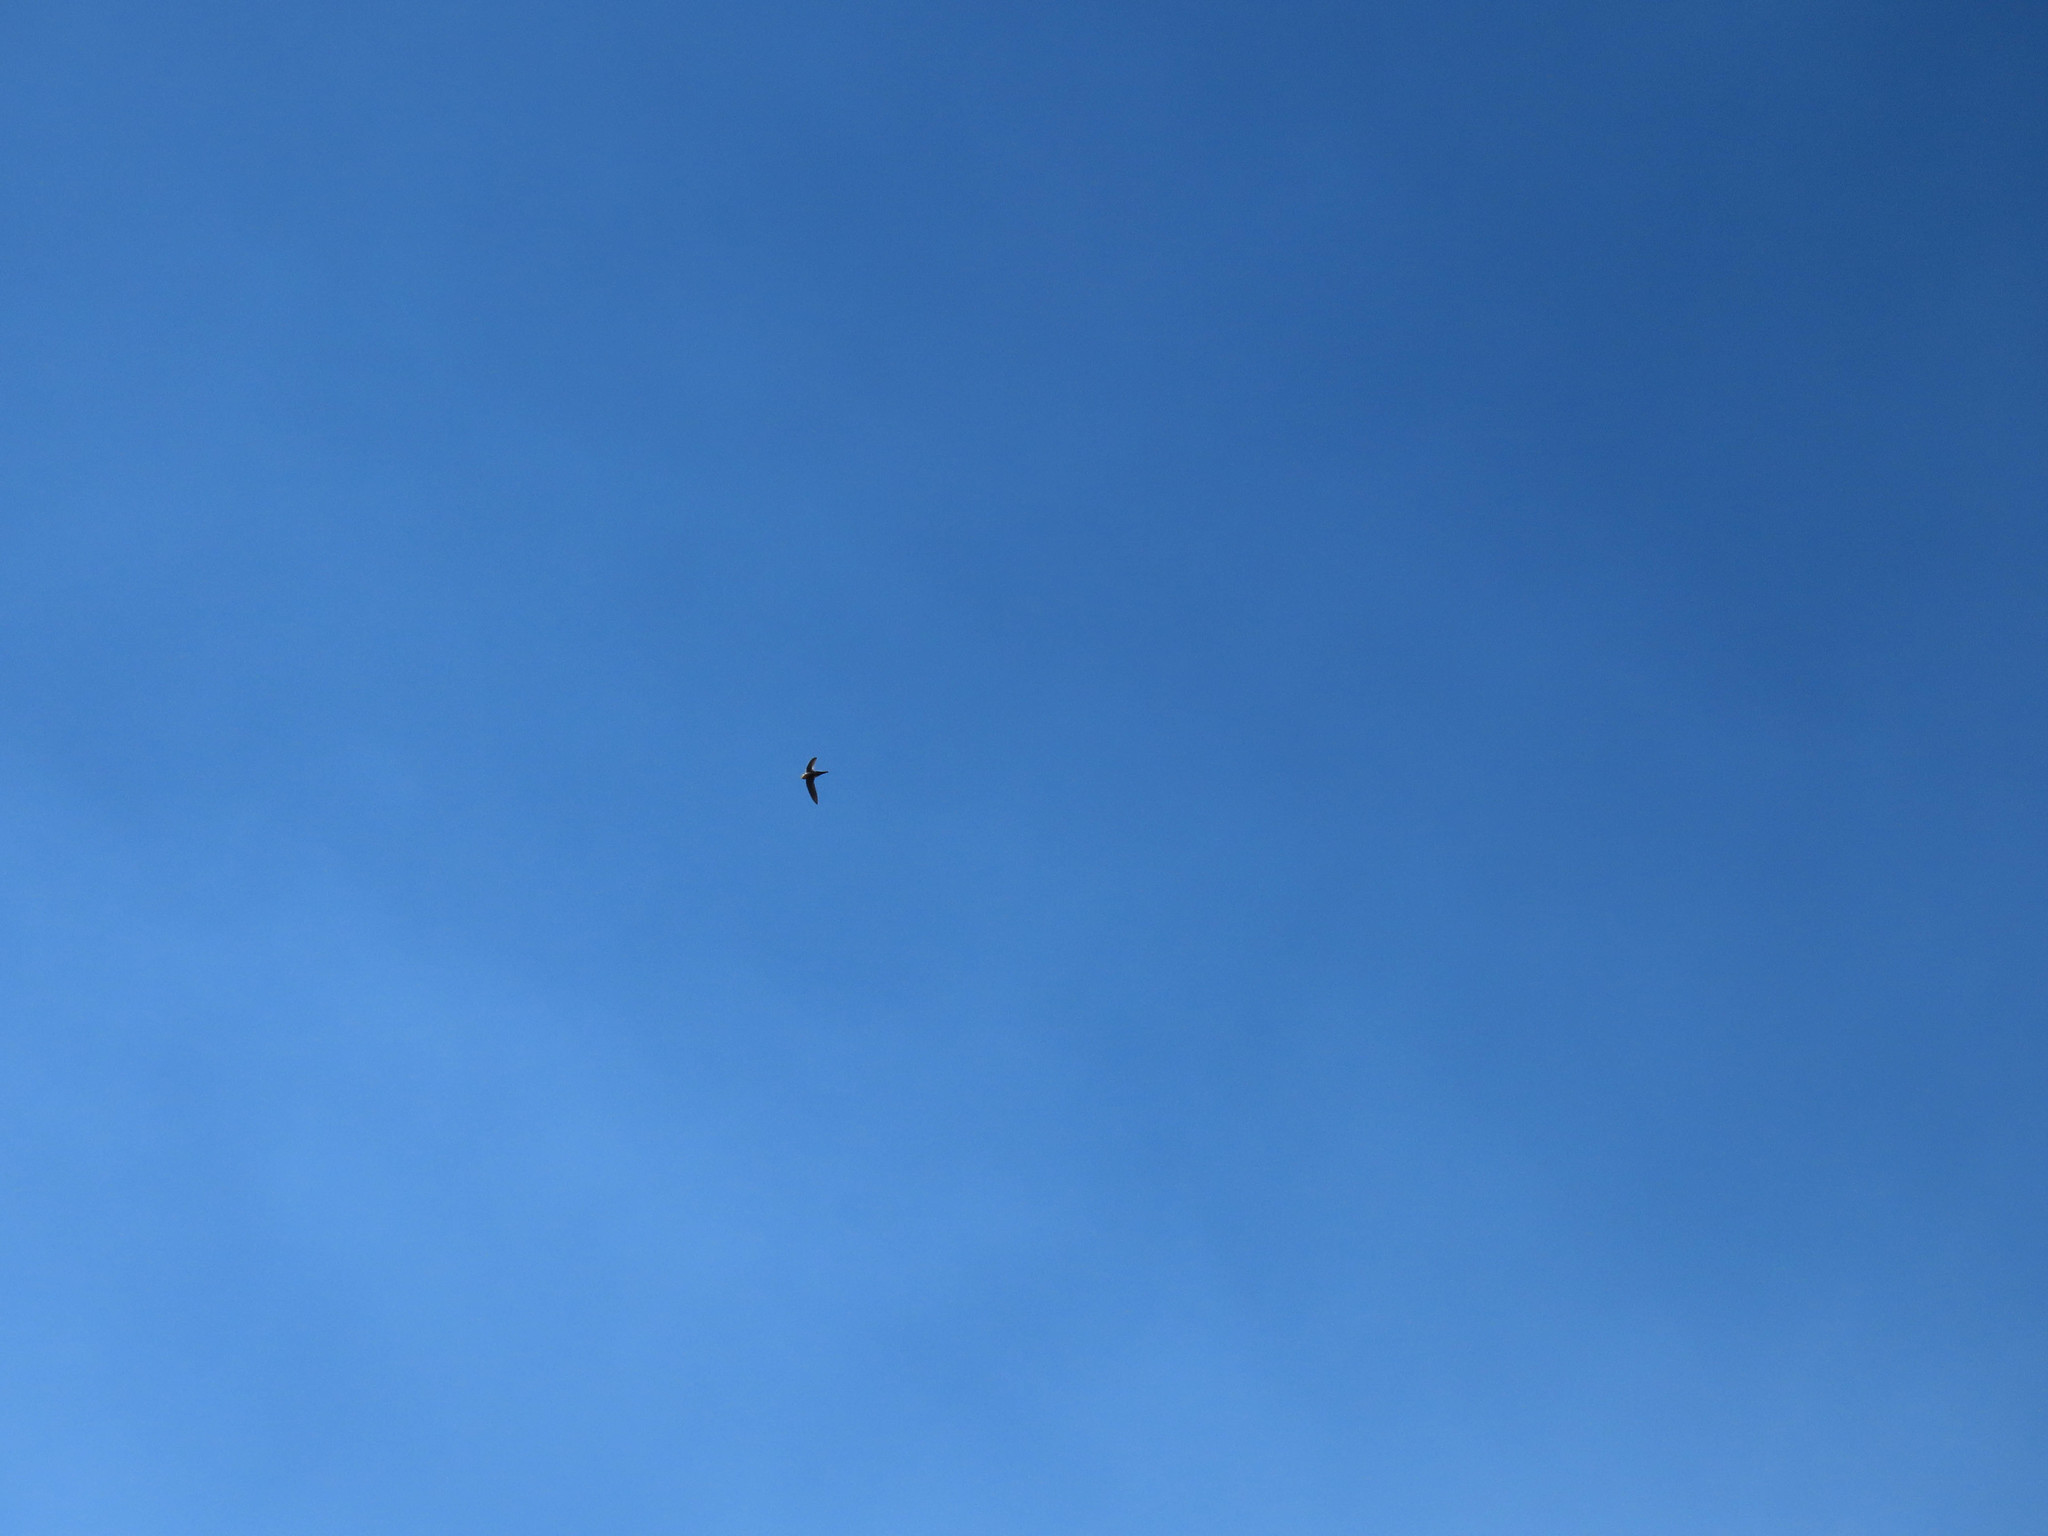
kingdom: Animalia
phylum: Chordata
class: Aves
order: Apodiformes
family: Apodidae
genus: Aeronautes
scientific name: Aeronautes saxatalis
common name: White-throated swift
